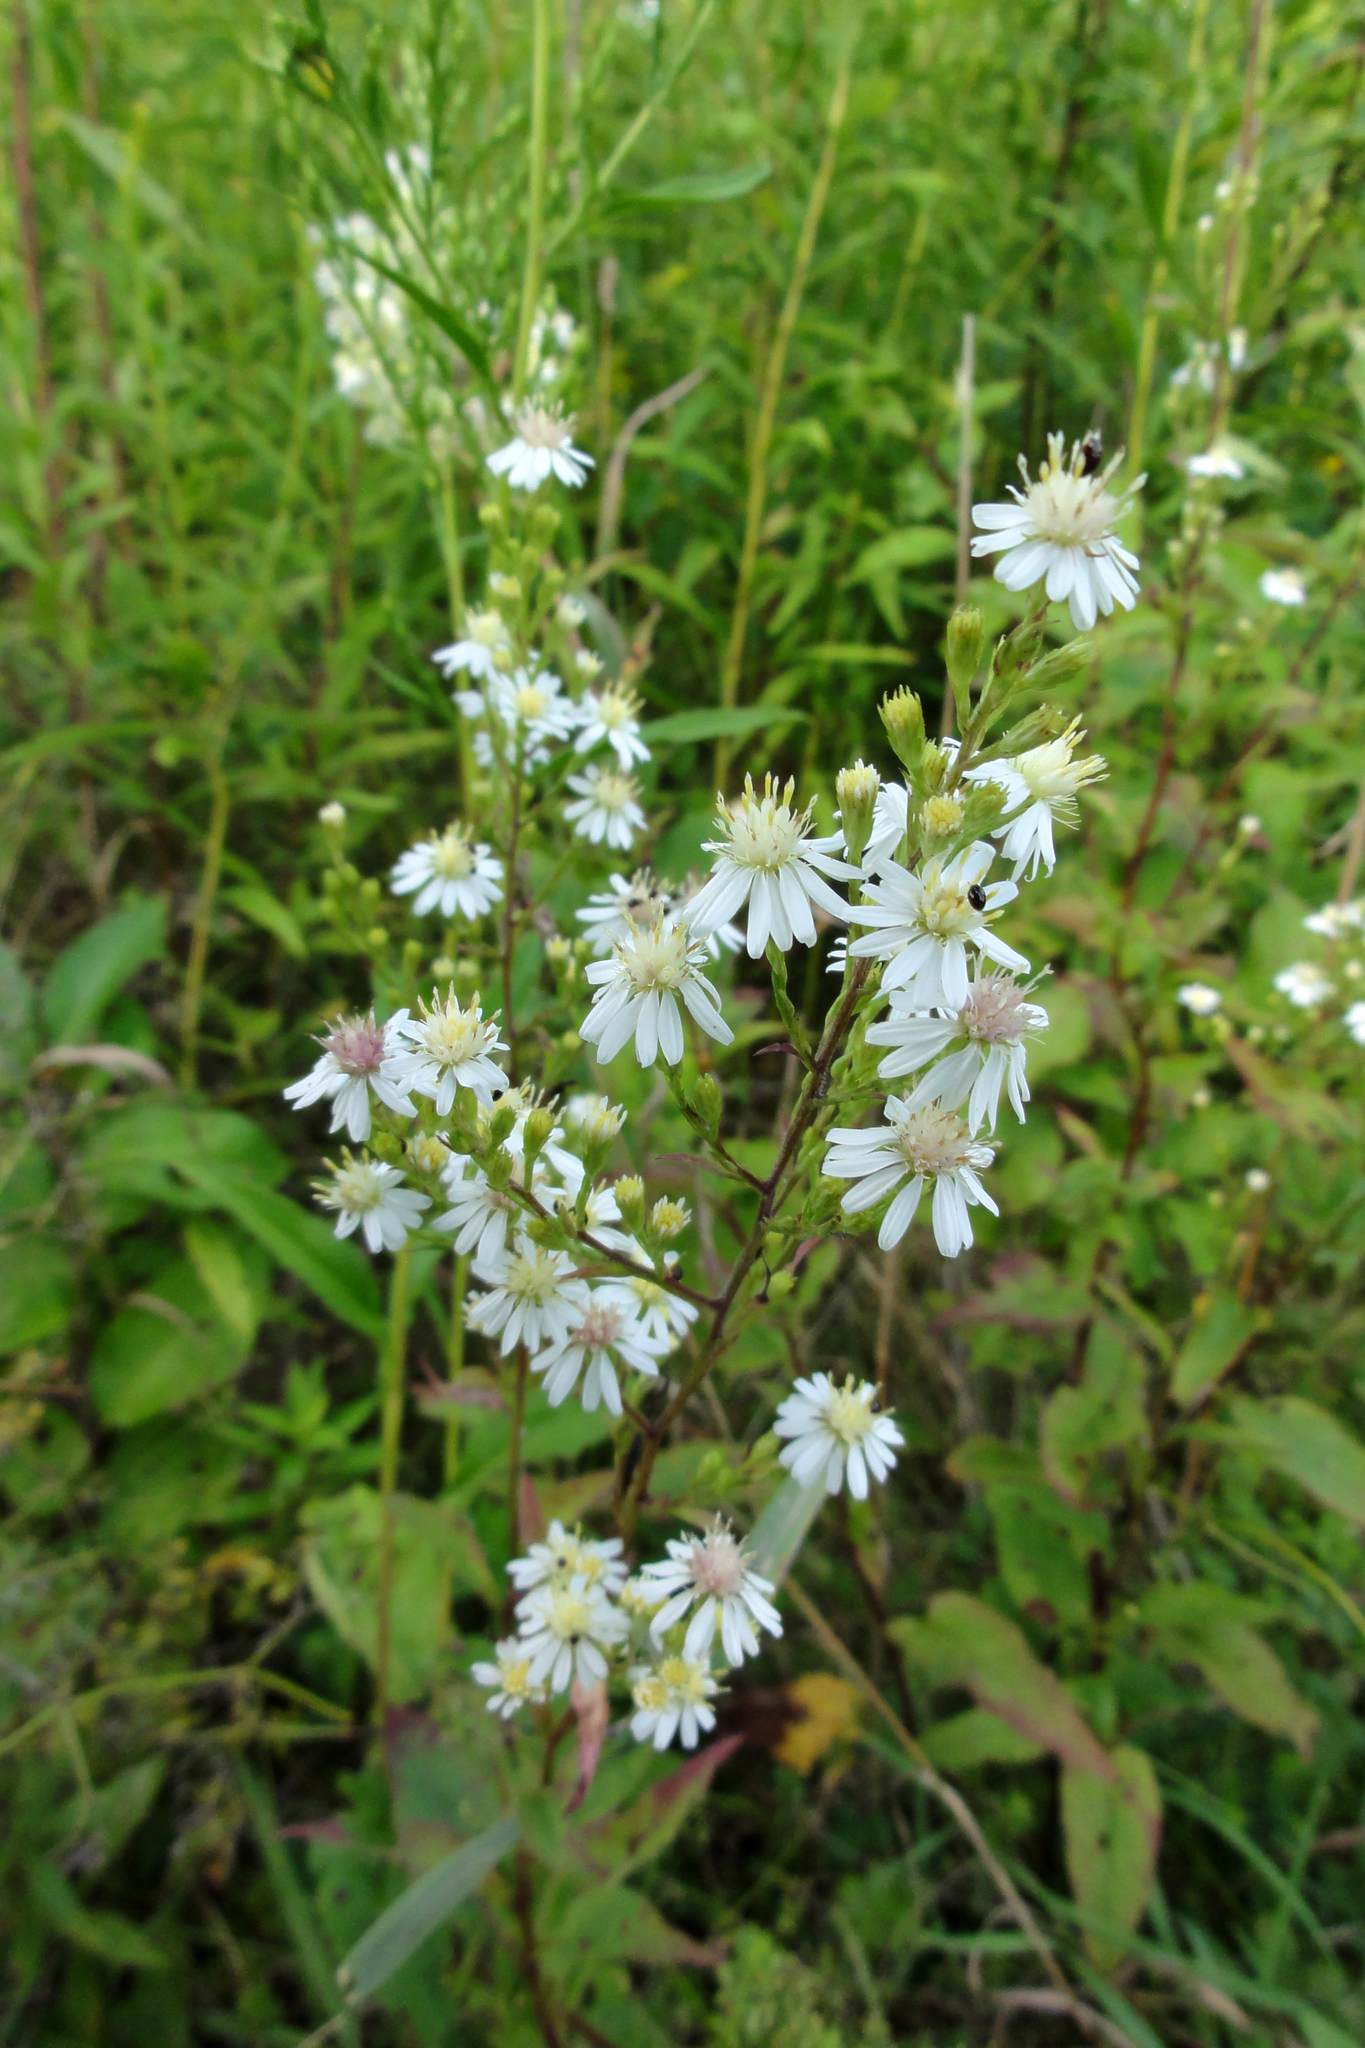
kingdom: Plantae
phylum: Tracheophyta
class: Magnoliopsida
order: Asterales
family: Asteraceae
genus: Symphyotrichum
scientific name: Symphyotrichum urophyllum
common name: Arrow-leaved aster
